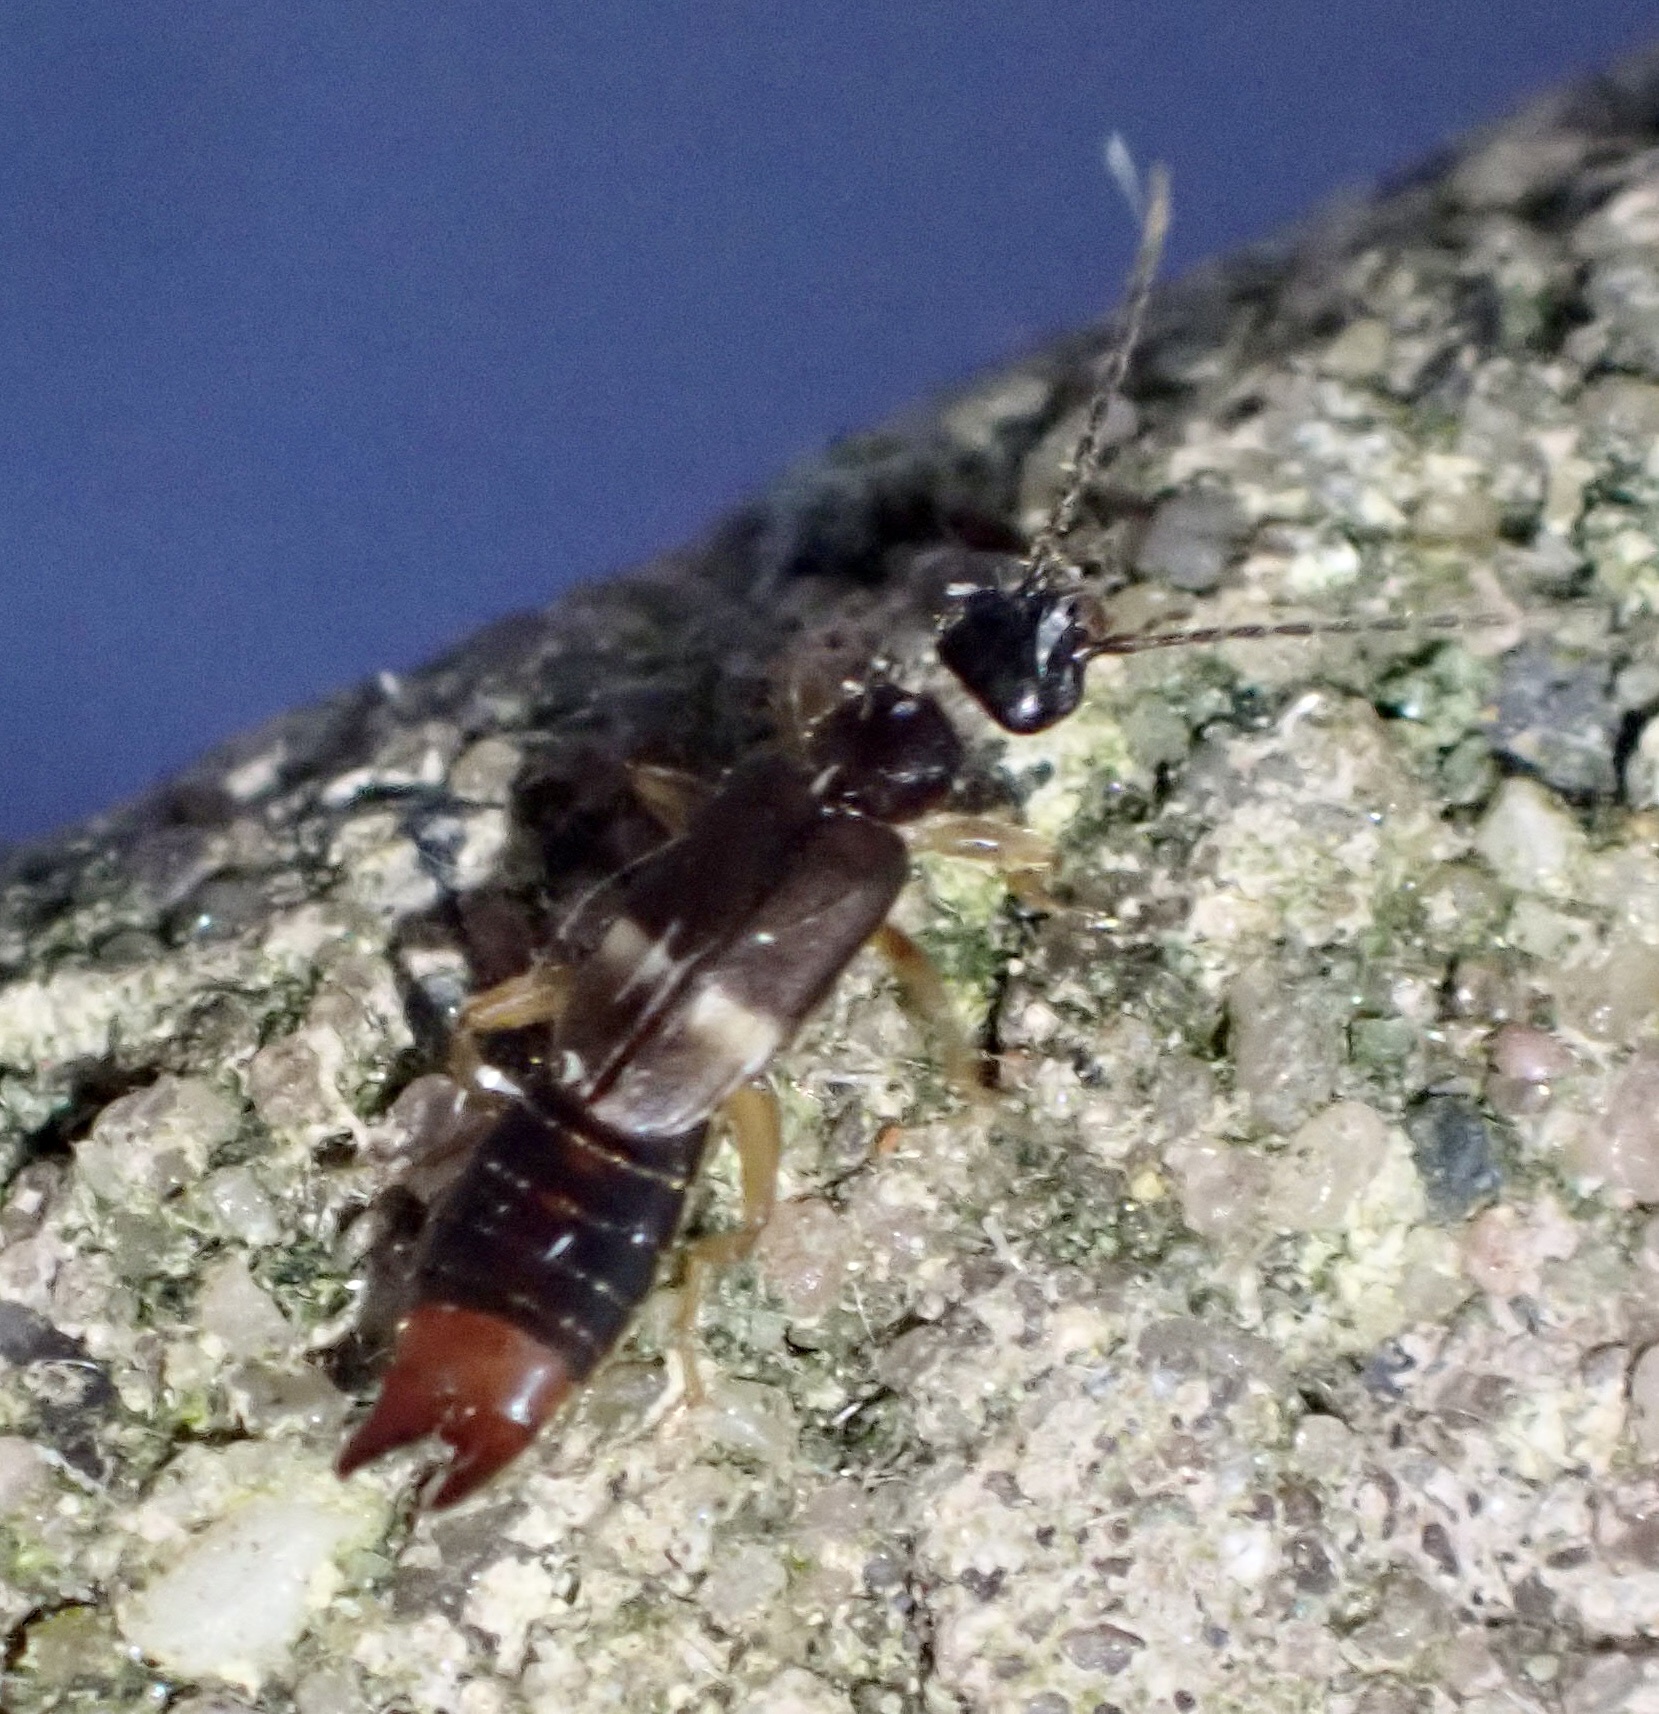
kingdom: Animalia
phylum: Arthropoda
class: Insecta
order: Dermaptera
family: Spongiphoridae
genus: Labia
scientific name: Labia minor
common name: Lesser earwig
